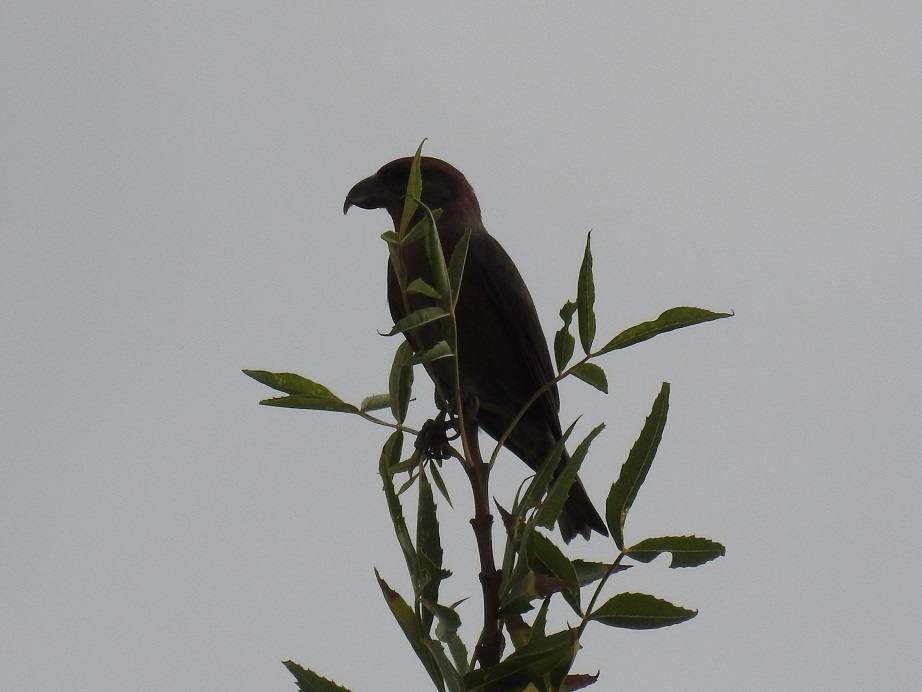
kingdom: Animalia
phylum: Chordata
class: Aves
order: Passeriformes
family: Fringillidae
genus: Loxia
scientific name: Loxia curvirostra
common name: Red crossbill
